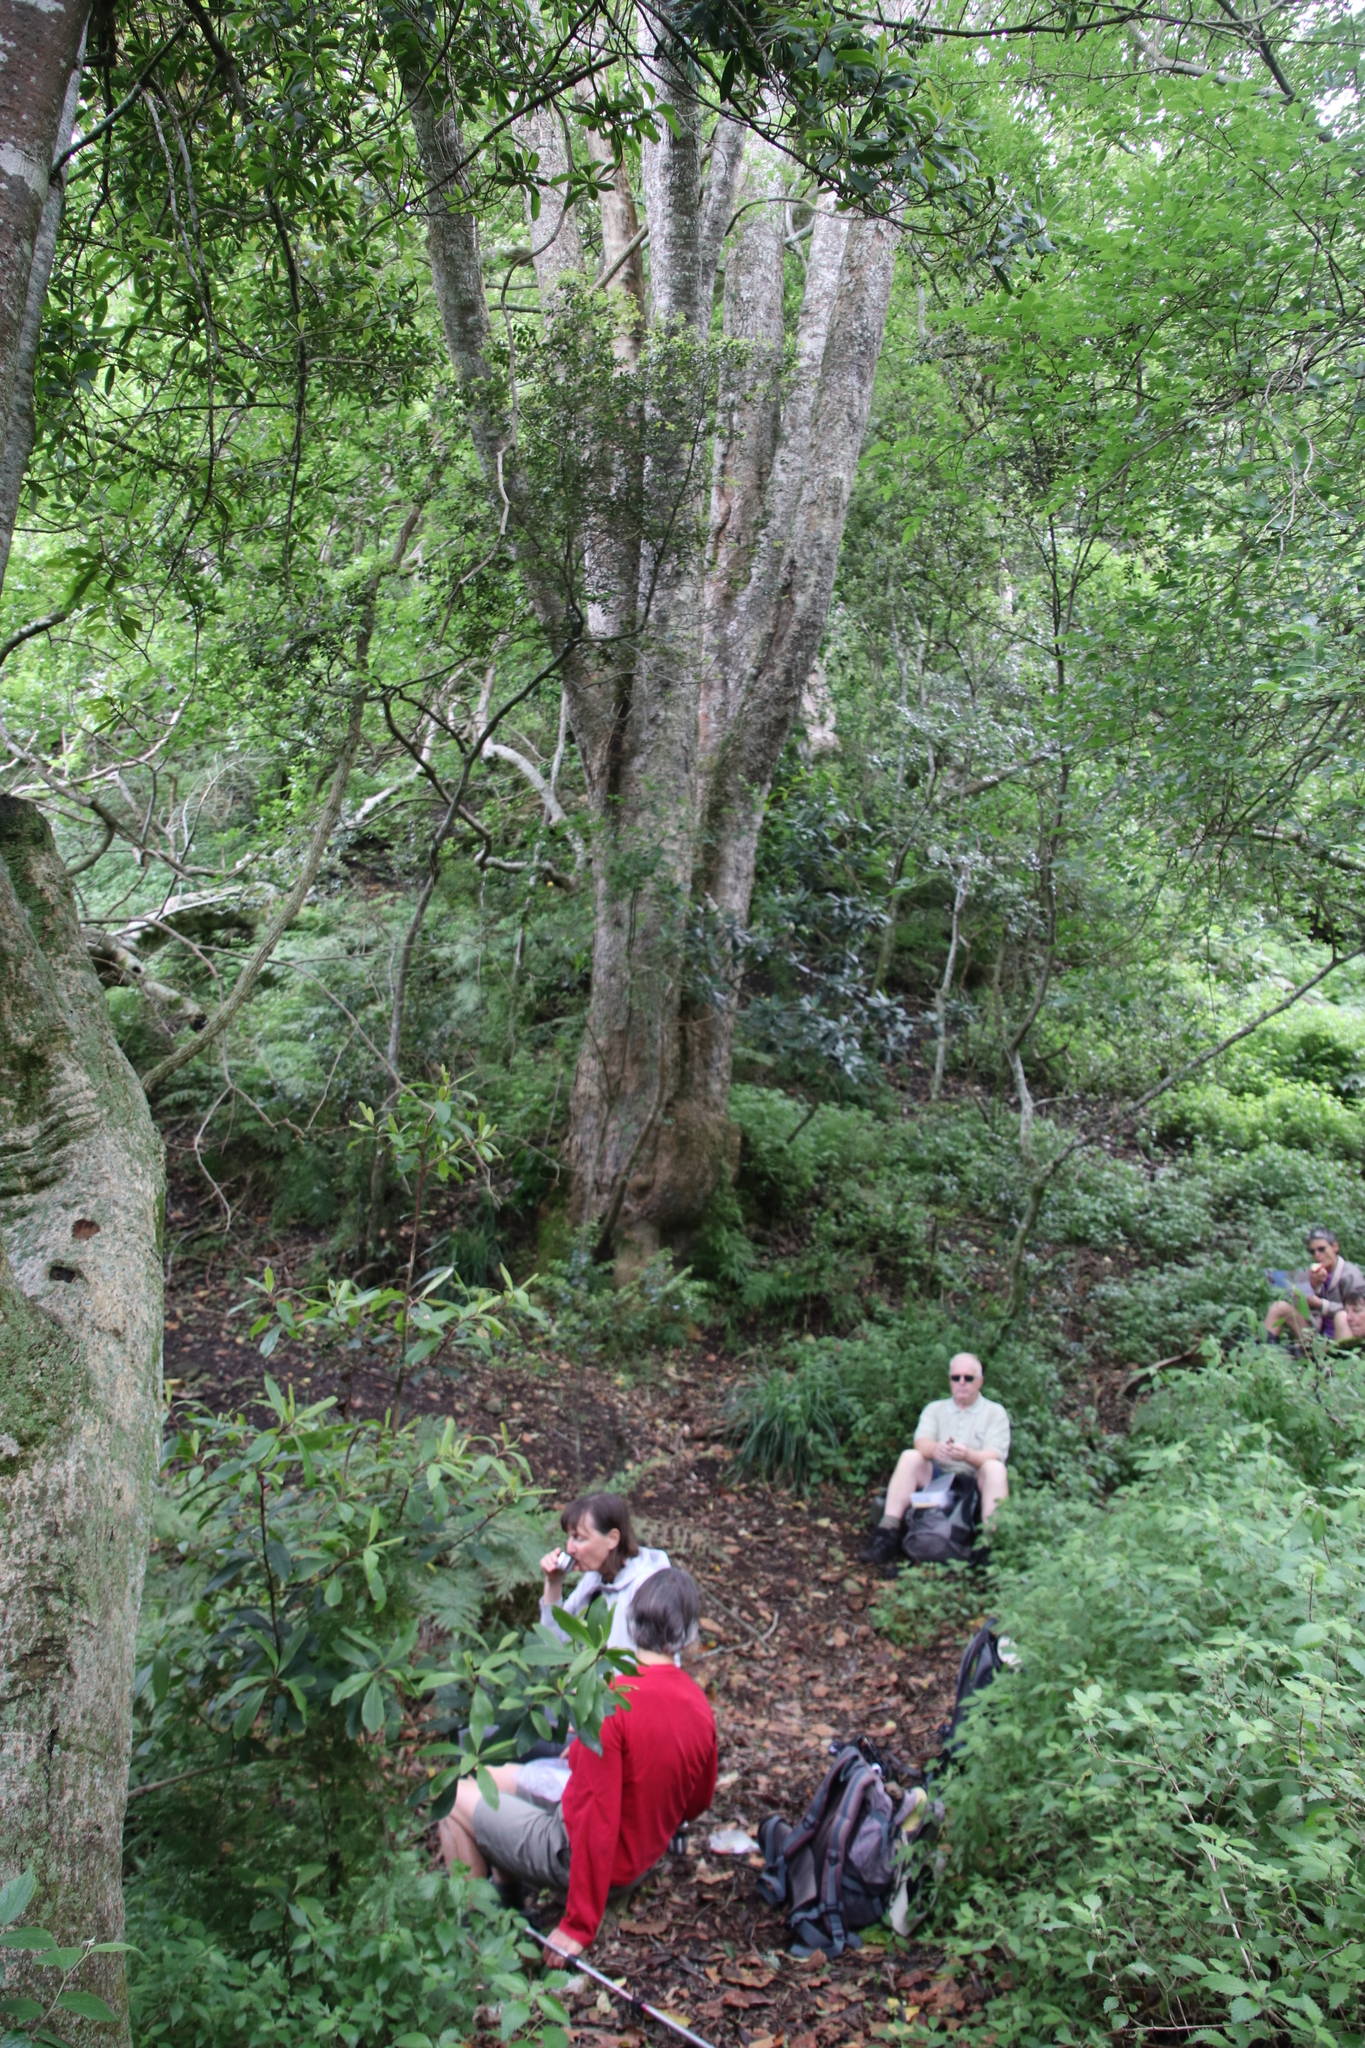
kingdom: Plantae
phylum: Tracheophyta
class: Magnoliopsida
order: Rosales
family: Cannabaceae
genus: Celtis
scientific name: Celtis africana
